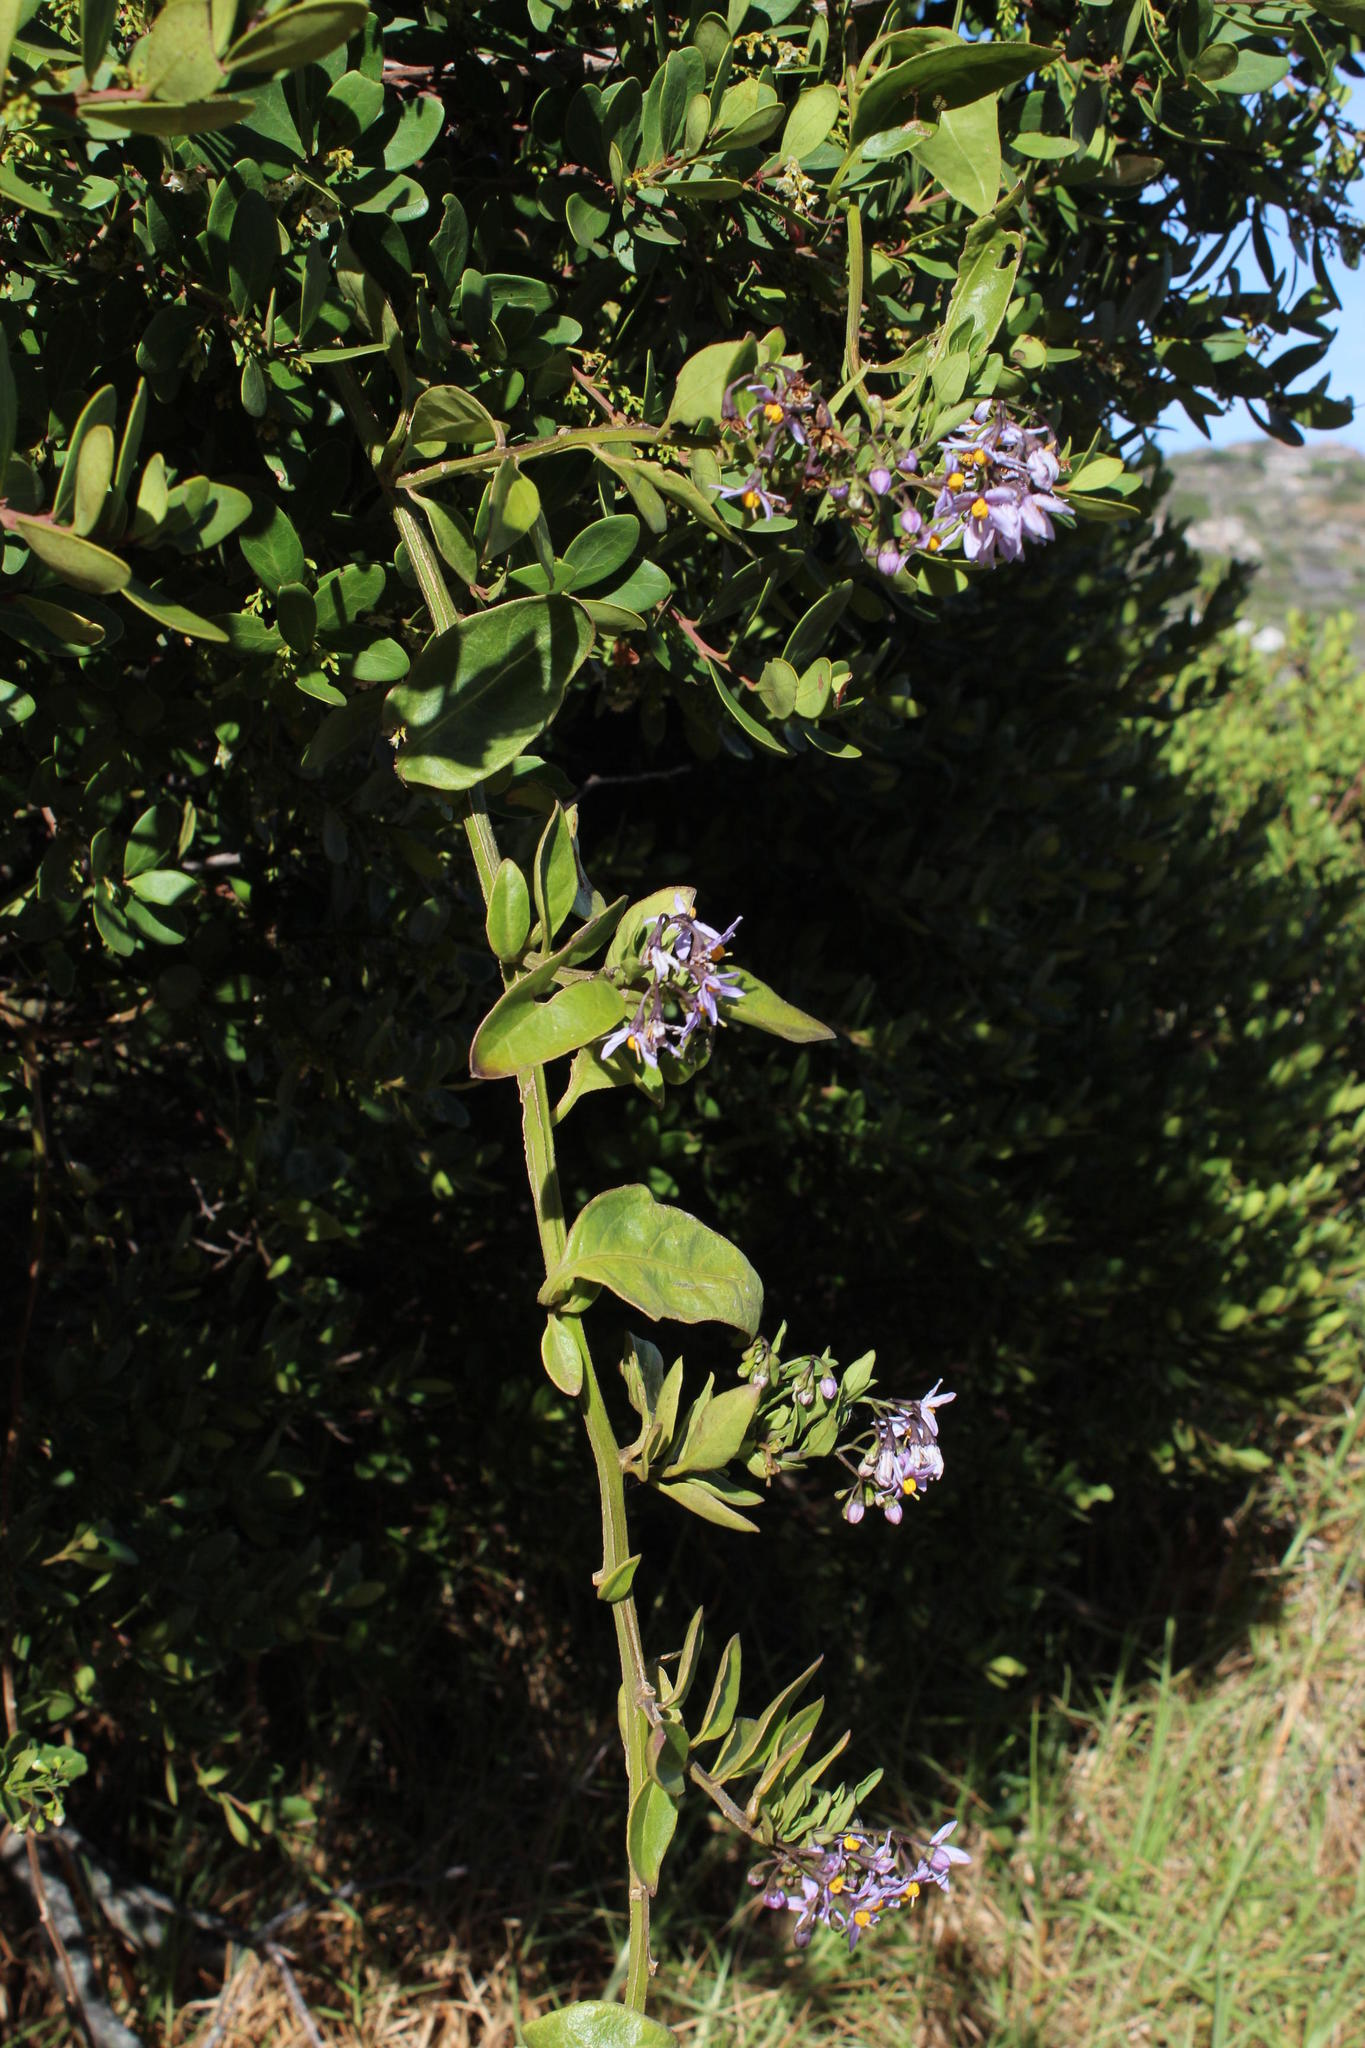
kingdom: Plantae
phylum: Tracheophyta
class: Magnoliopsida
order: Solanales
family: Solanaceae
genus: Solanum
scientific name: Solanum africanum
